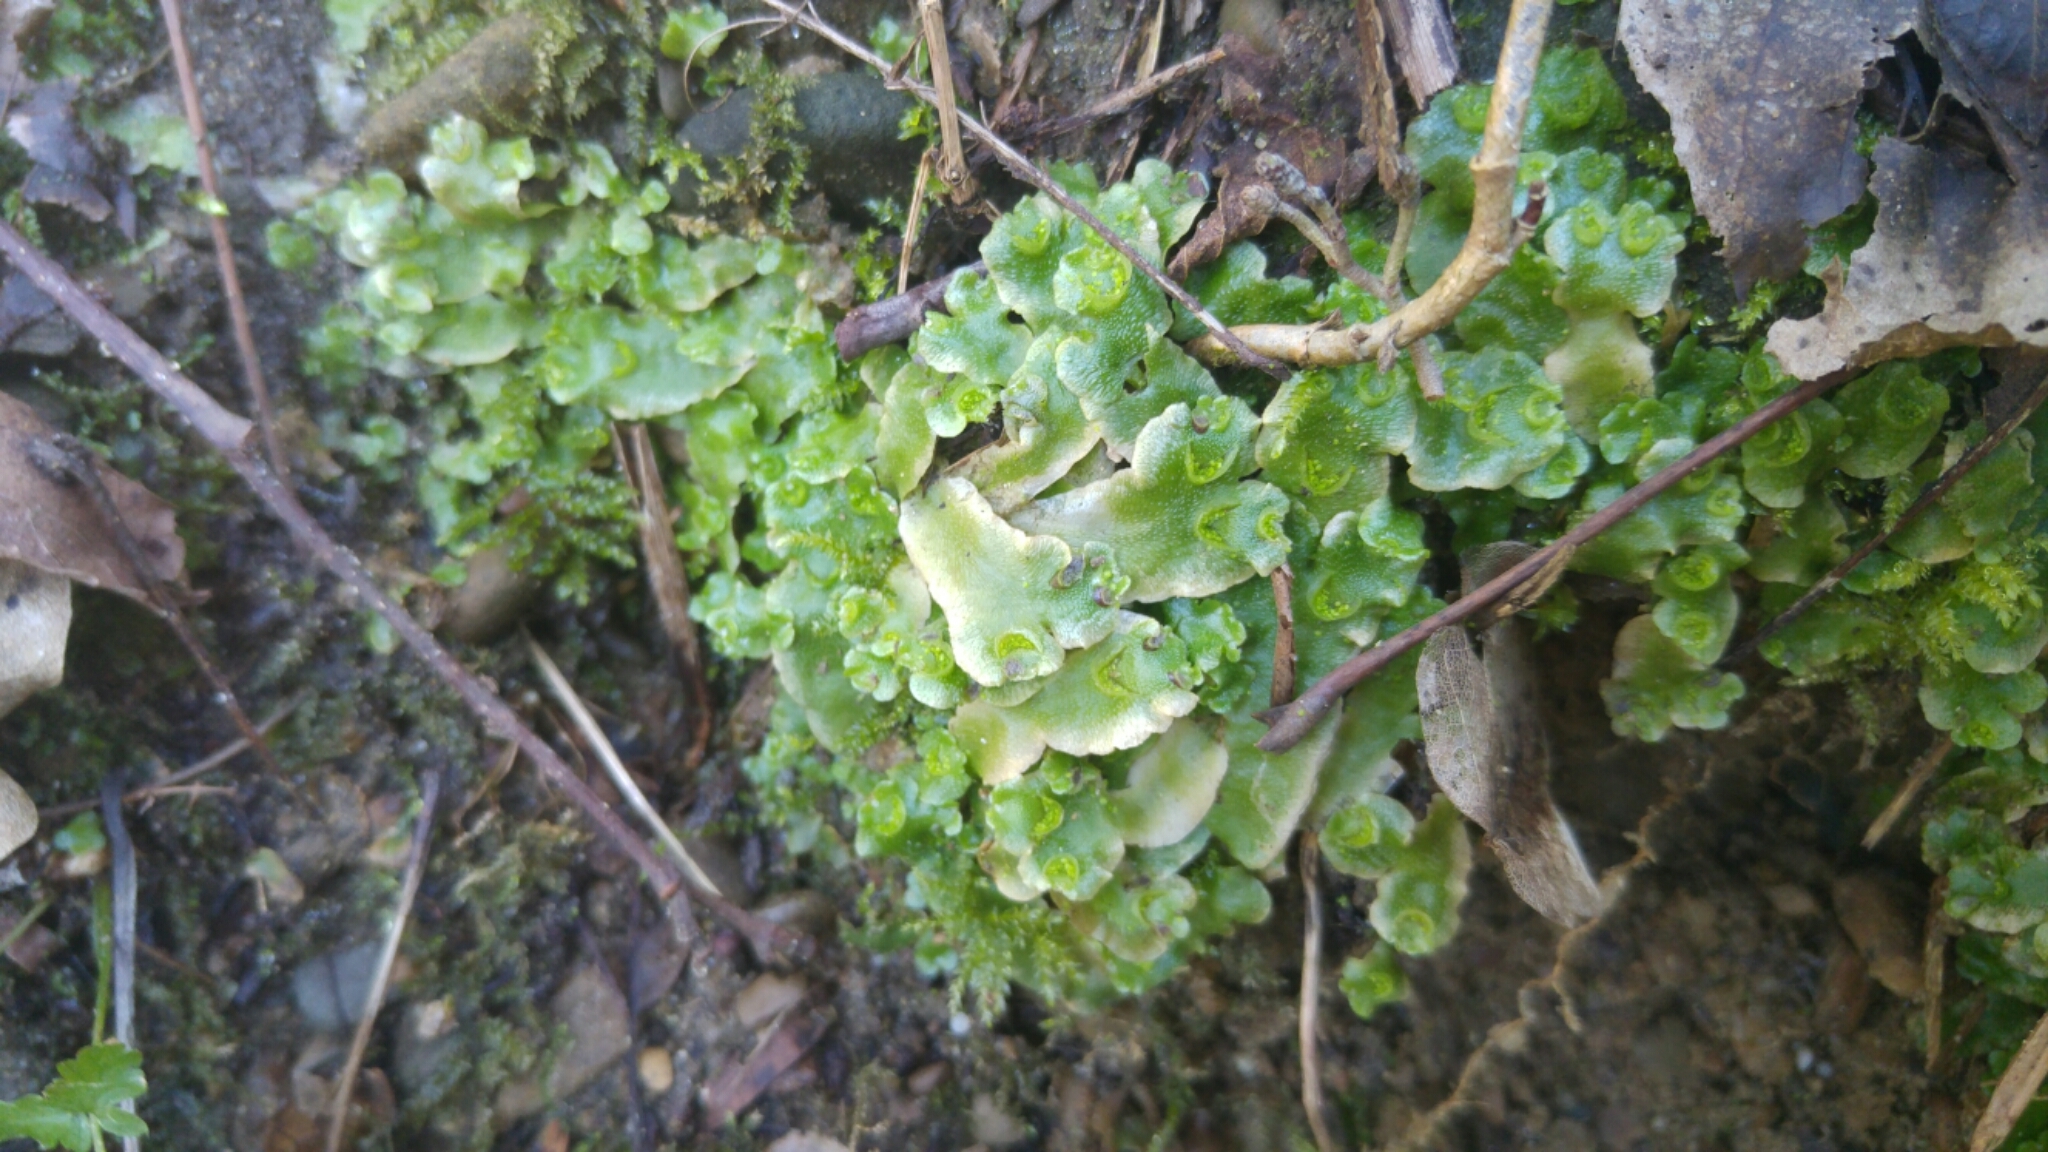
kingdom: Plantae
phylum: Marchantiophyta
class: Marchantiopsida
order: Lunulariales
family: Lunulariaceae
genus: Lunularia
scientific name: Lunularia cruciata
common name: Crescent-cup liverwort
